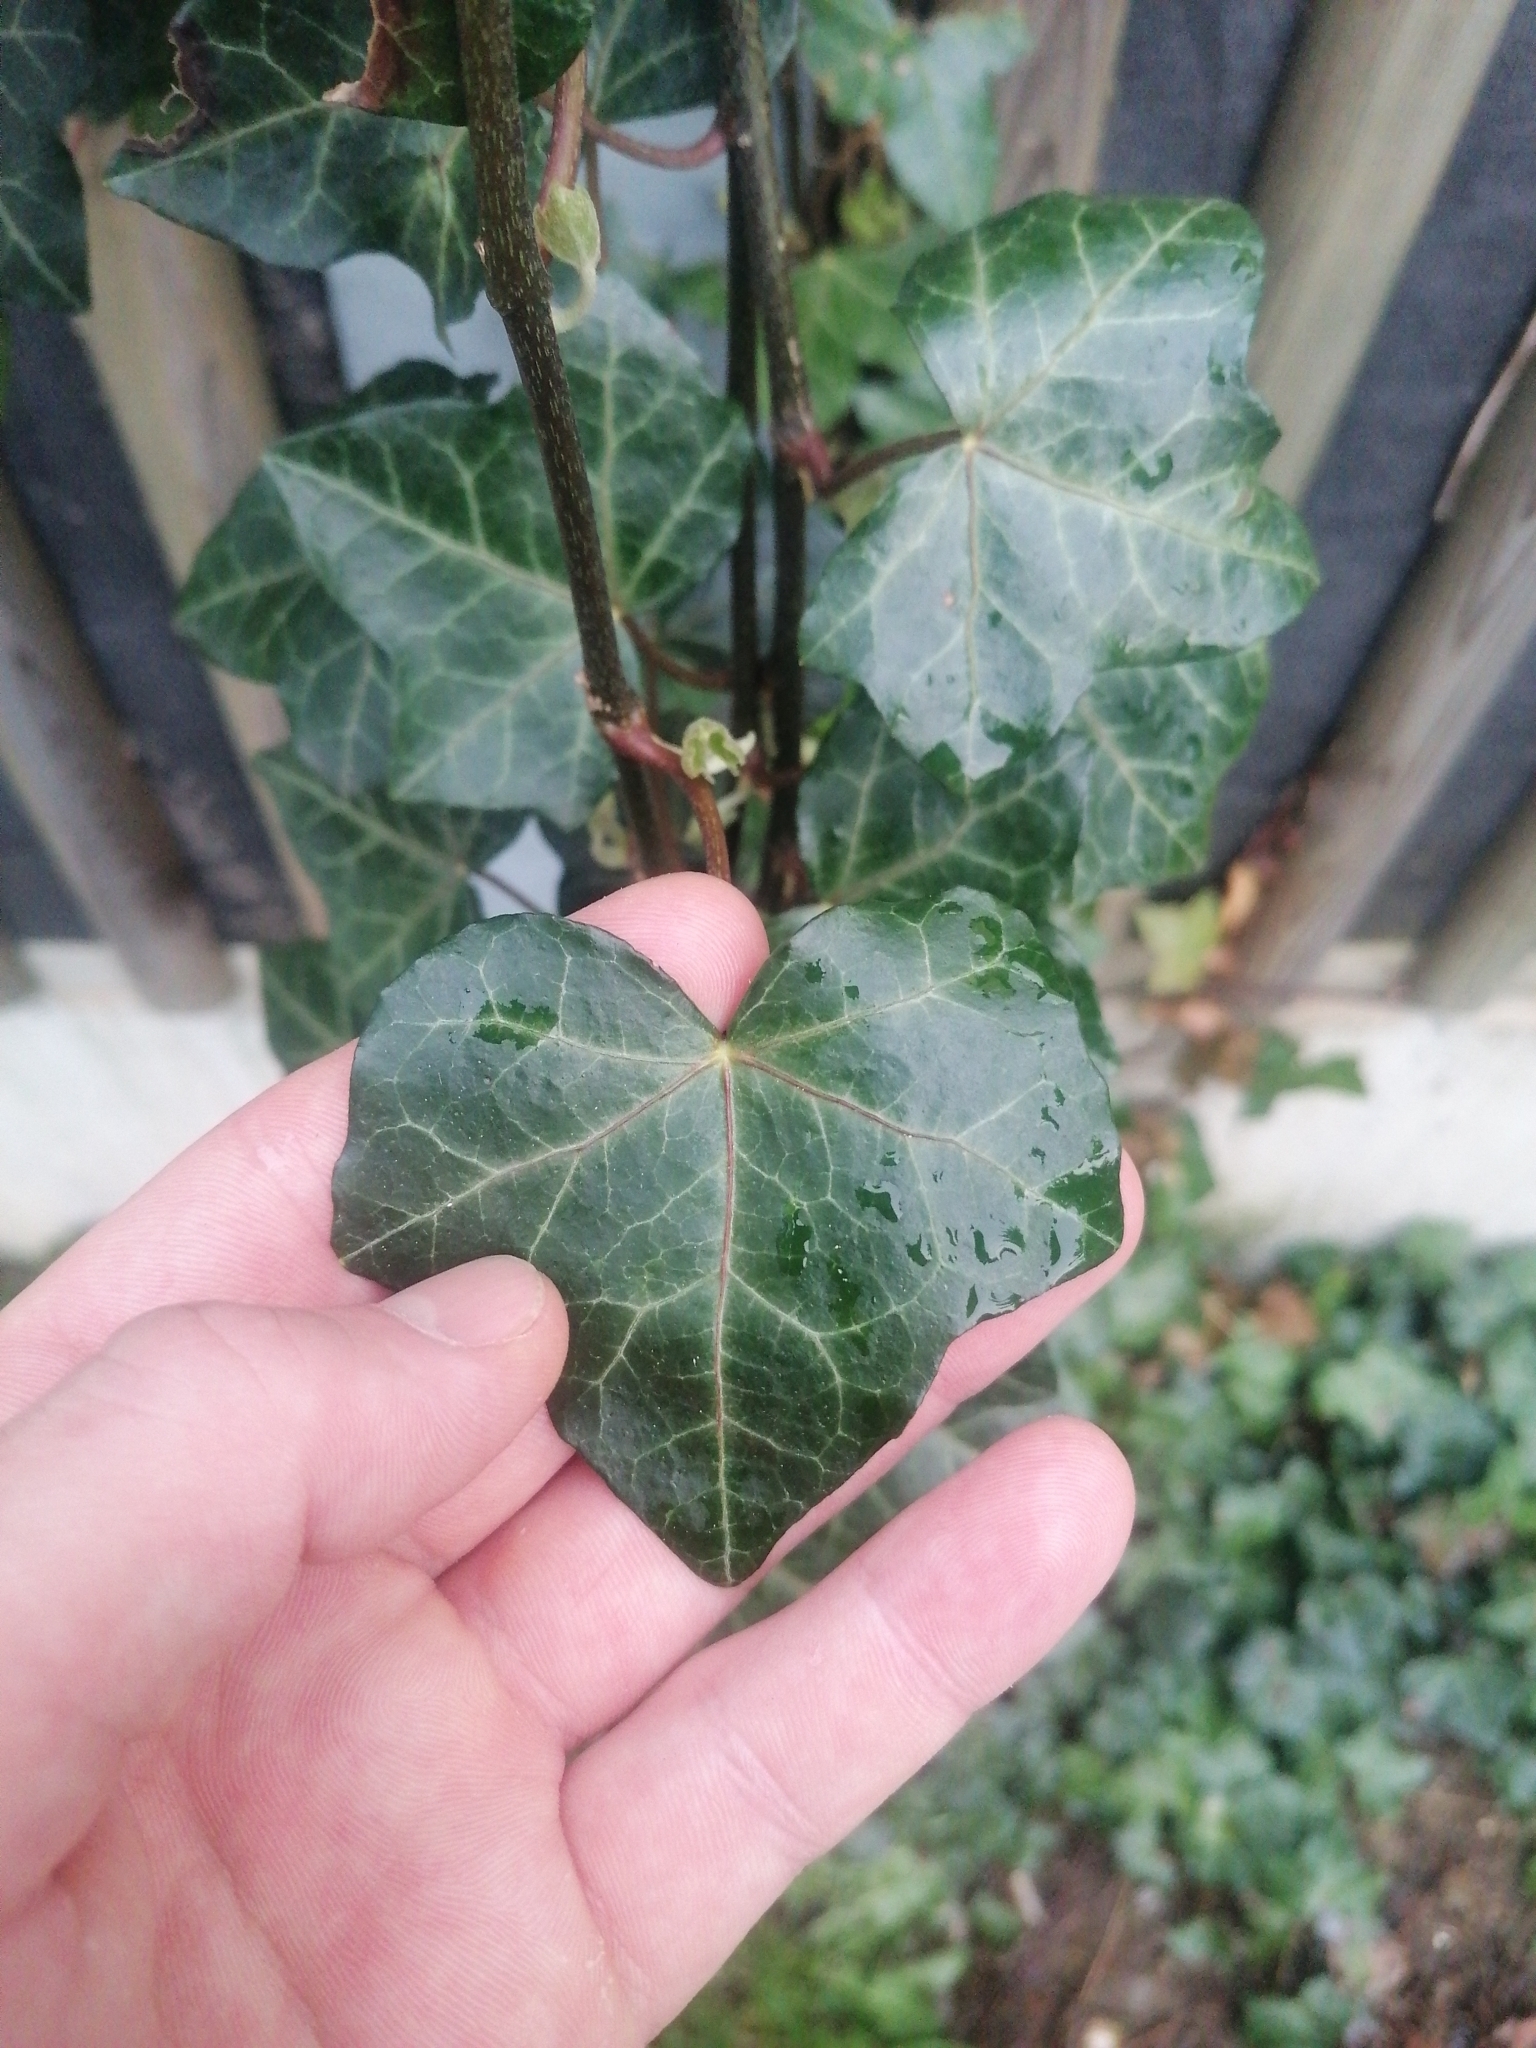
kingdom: Plantae
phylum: Tracheophyta
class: Magnoliopsida
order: Apiales
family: Araliaceae
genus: Hedera
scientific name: Hedera helix
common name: Ivy
